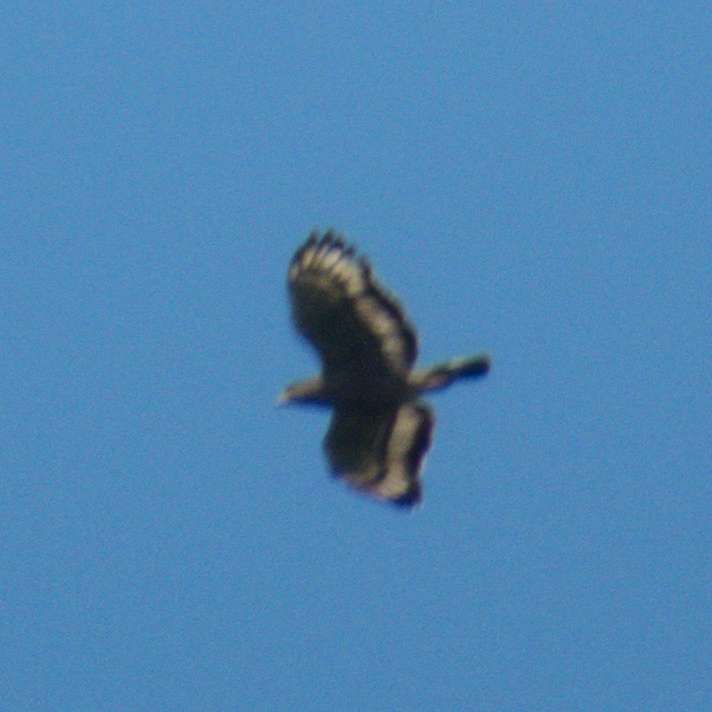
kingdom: Animalia
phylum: Chordata
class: Aves
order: Accipitriformes
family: Accipitridae
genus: Spilornis
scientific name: Spilornis cheela
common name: Crested serpent eagle
